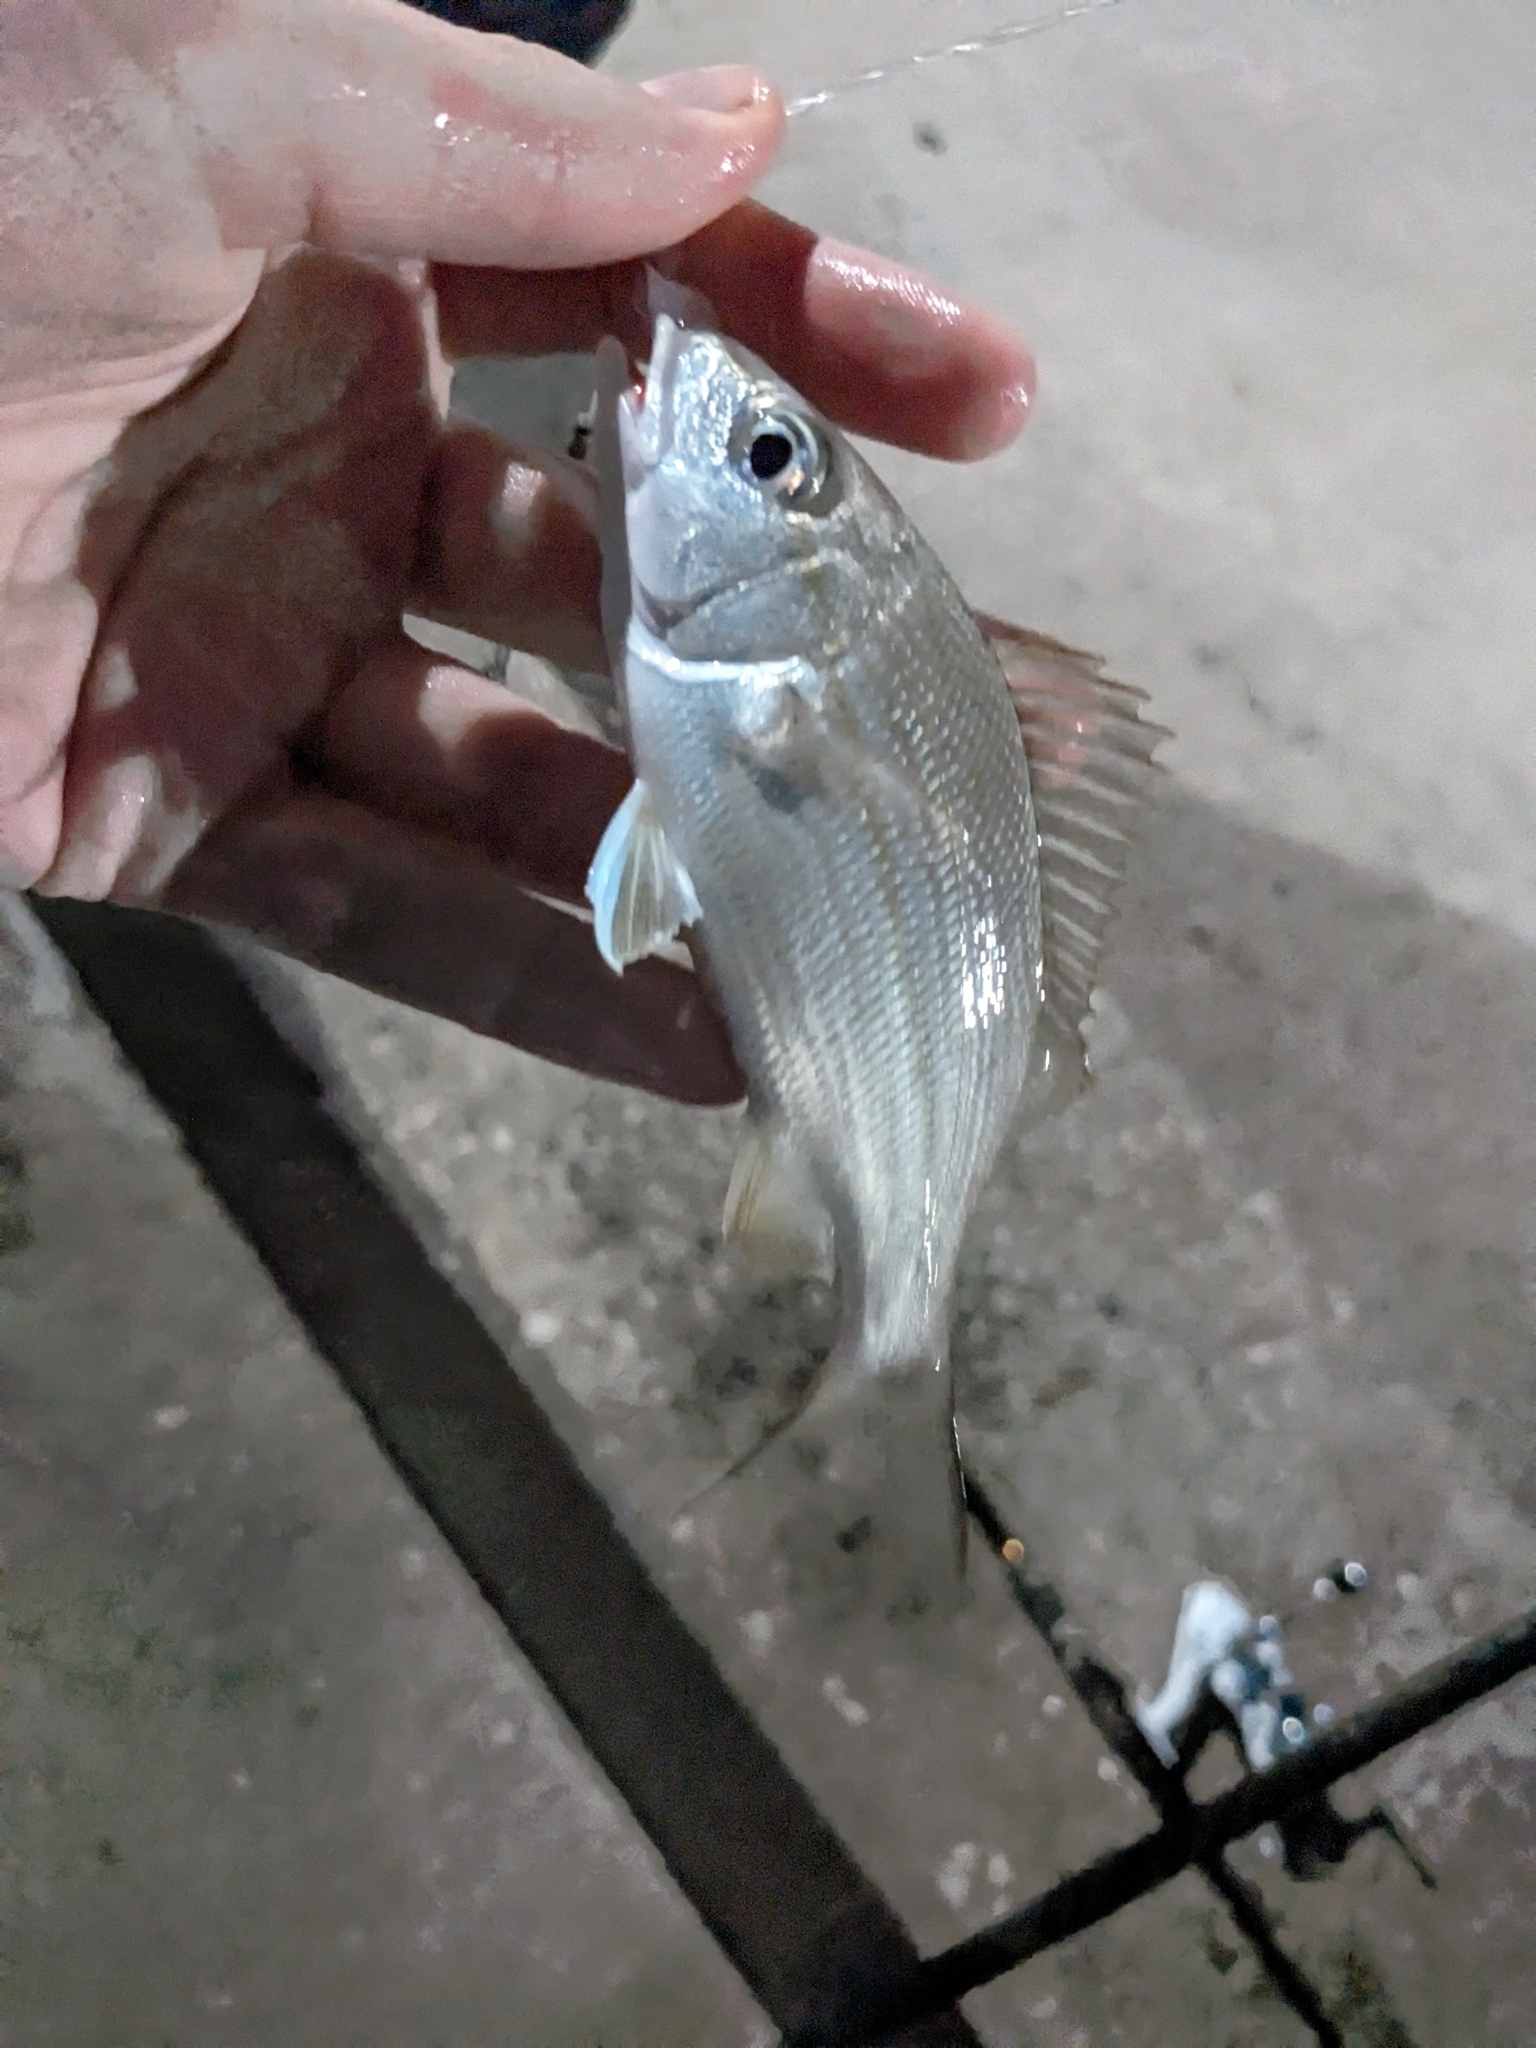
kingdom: Animalia
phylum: Chordata
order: Perciformes
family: Haemulidae
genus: Haemulon
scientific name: Haemulon aurolineatum
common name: Tomtate
